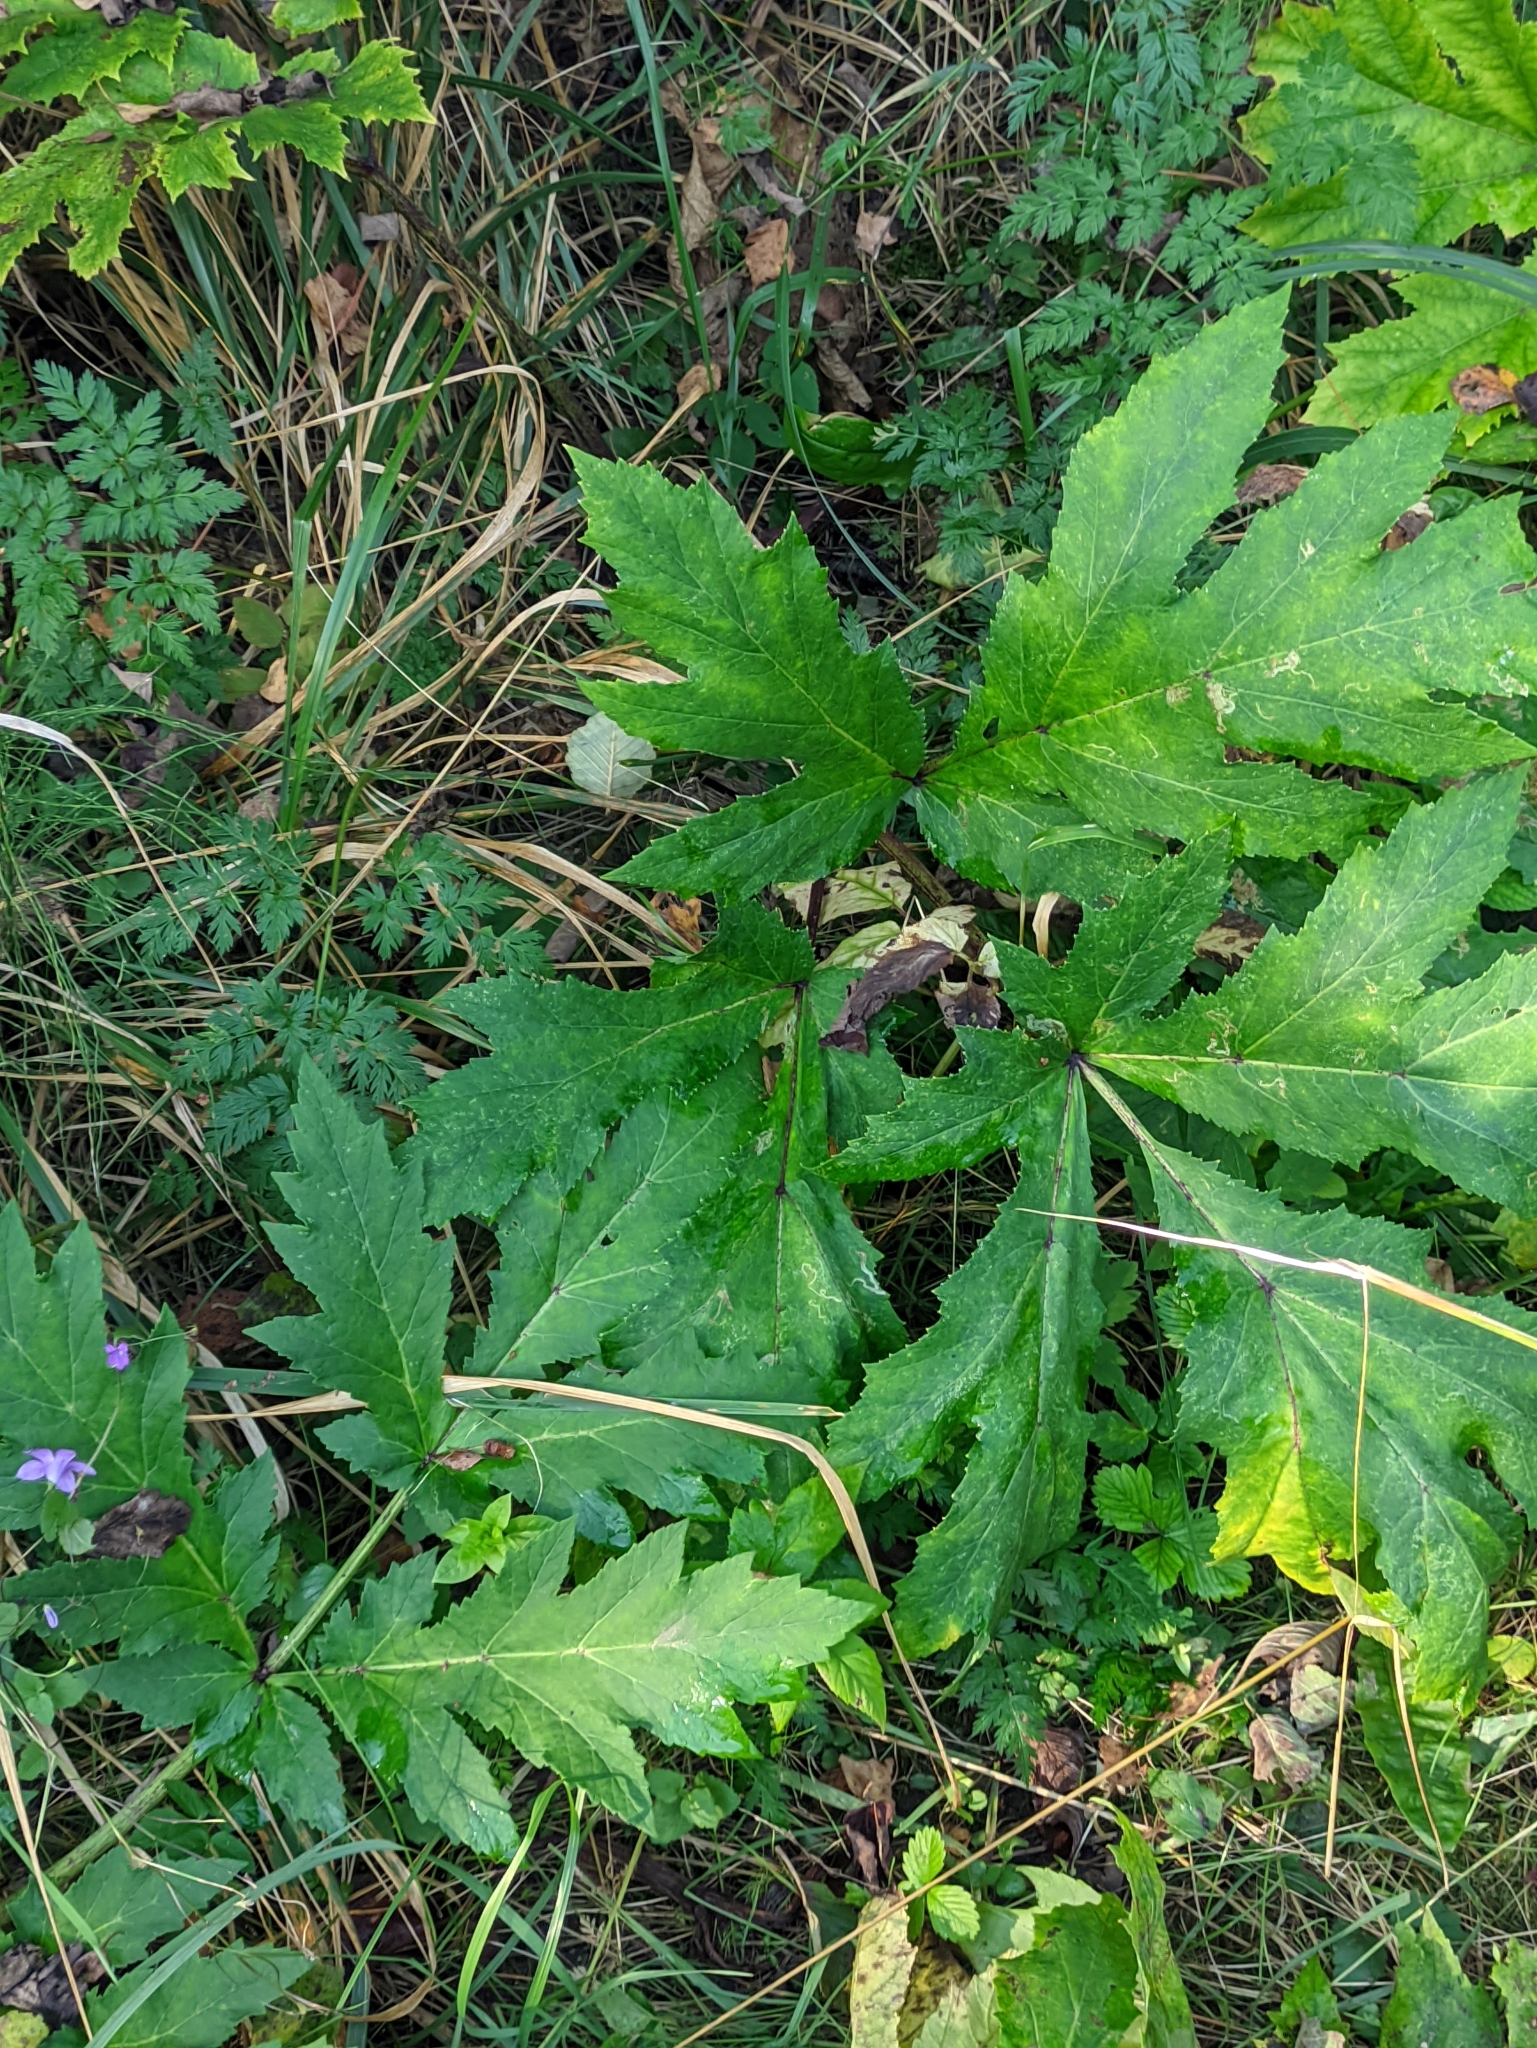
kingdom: Plantae
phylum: Tracheophyta
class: Magnoliopsida
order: Apiales
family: Apiaceae
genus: Heracleum
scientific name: Heracleum sosnowskyi
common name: Sosnowsky's hogweed
